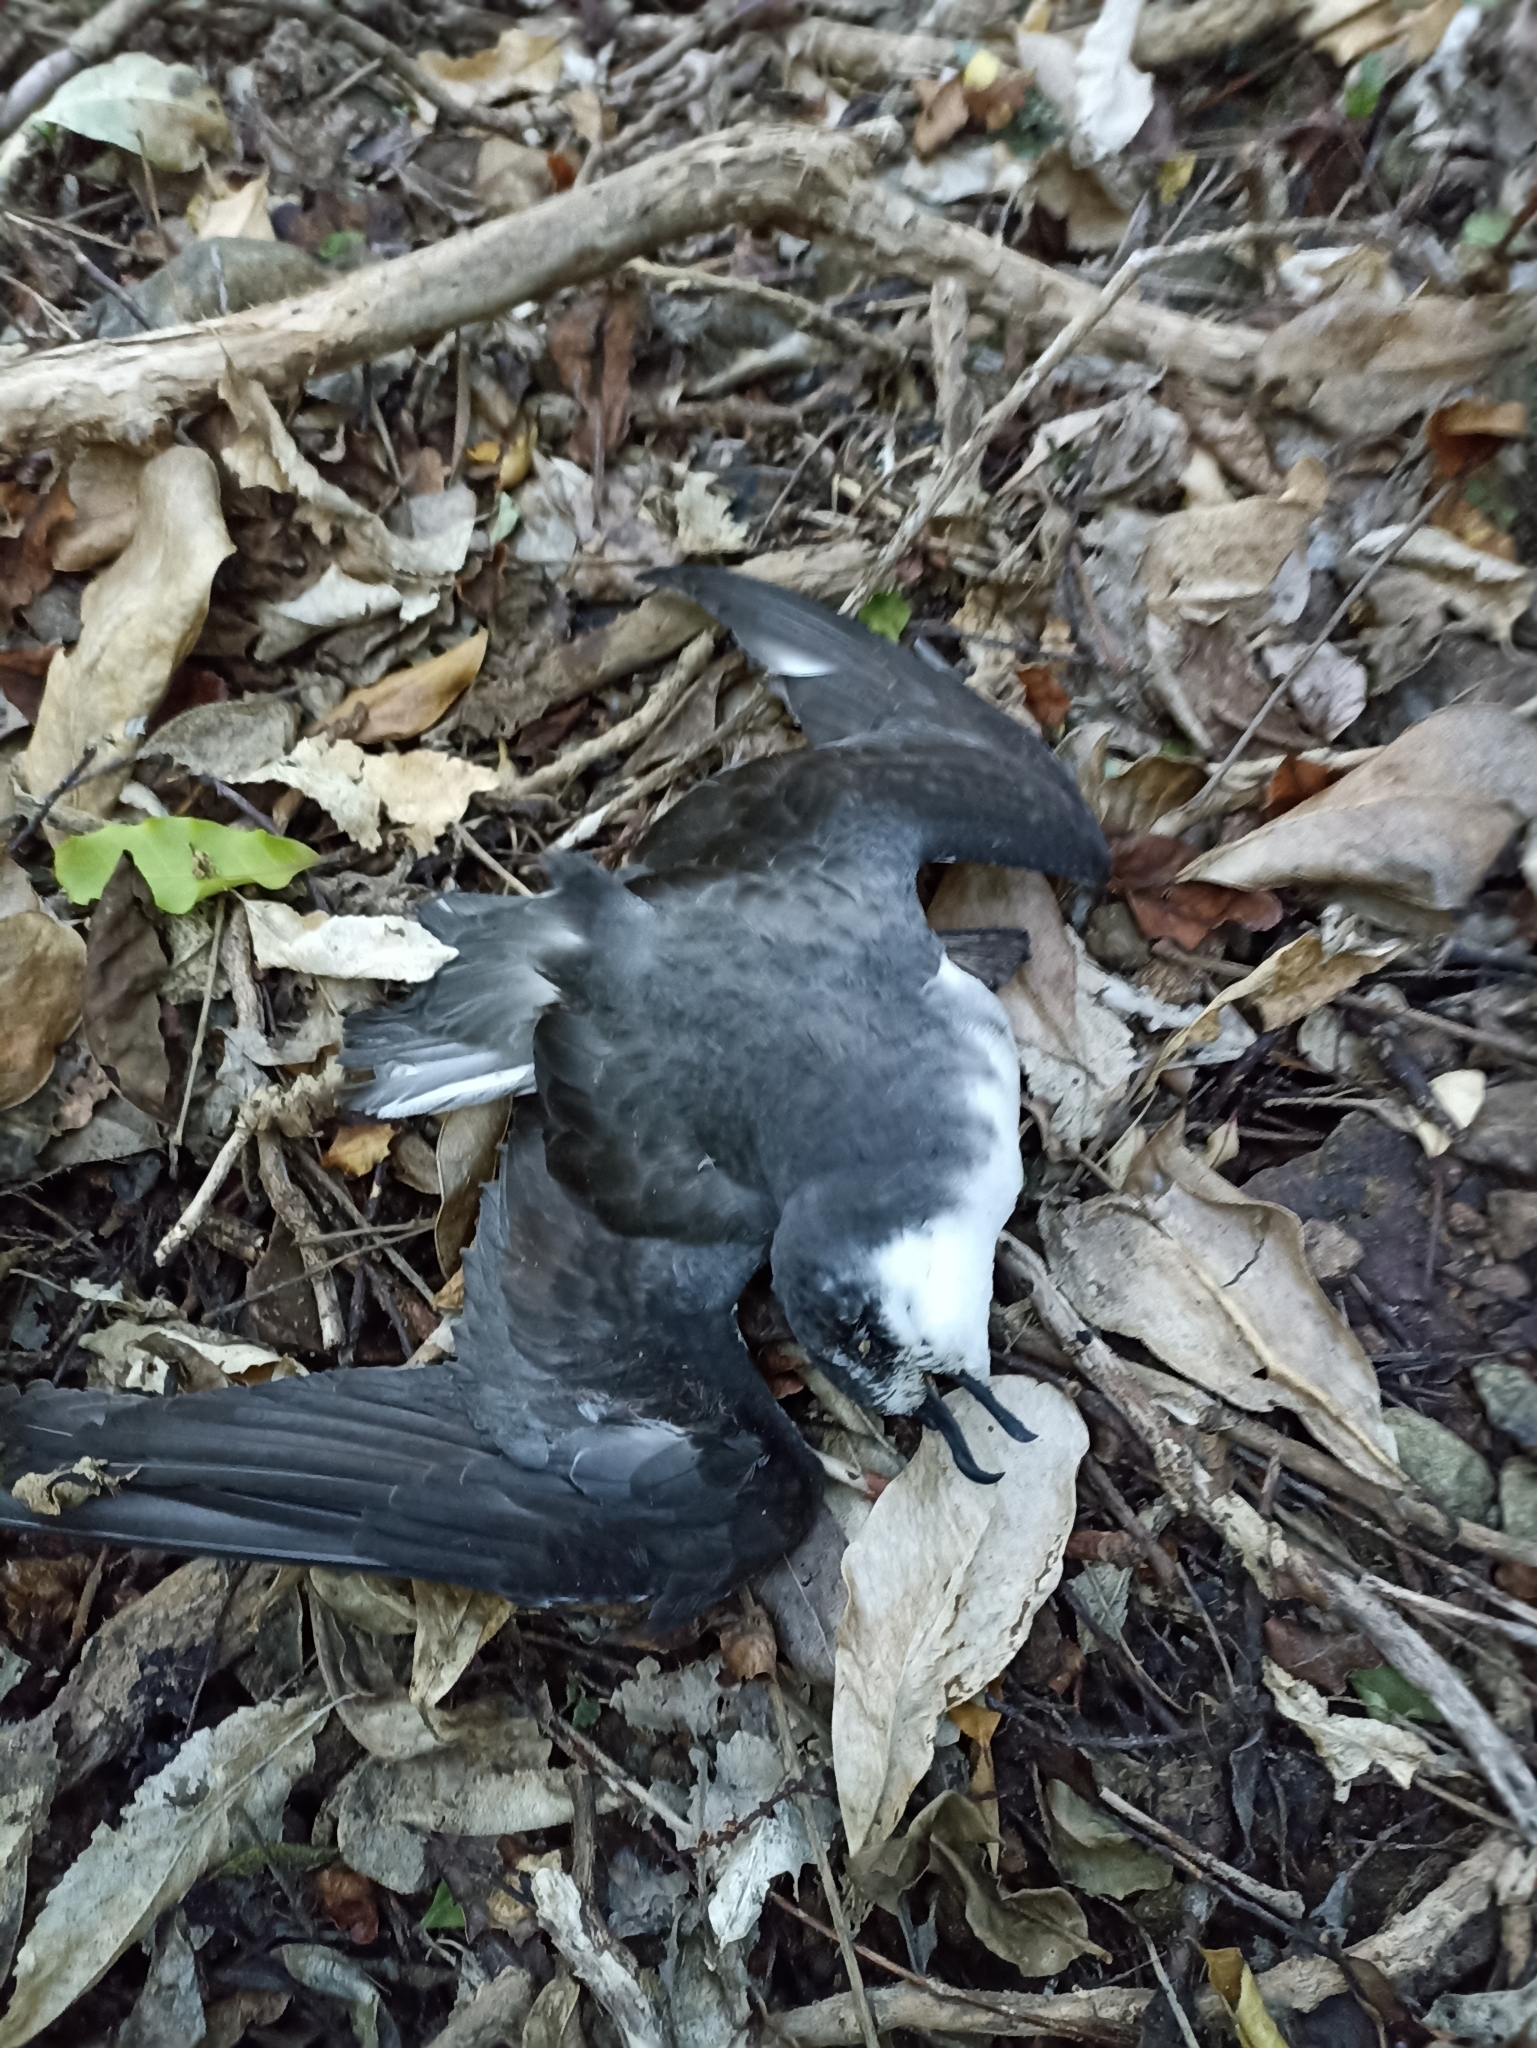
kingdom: Animalia
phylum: Chordata
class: Aves
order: Procellariiformes
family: Procellariidae
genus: Pterodroma
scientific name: Pterodroma pycrofti
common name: Pycroft's petrel
